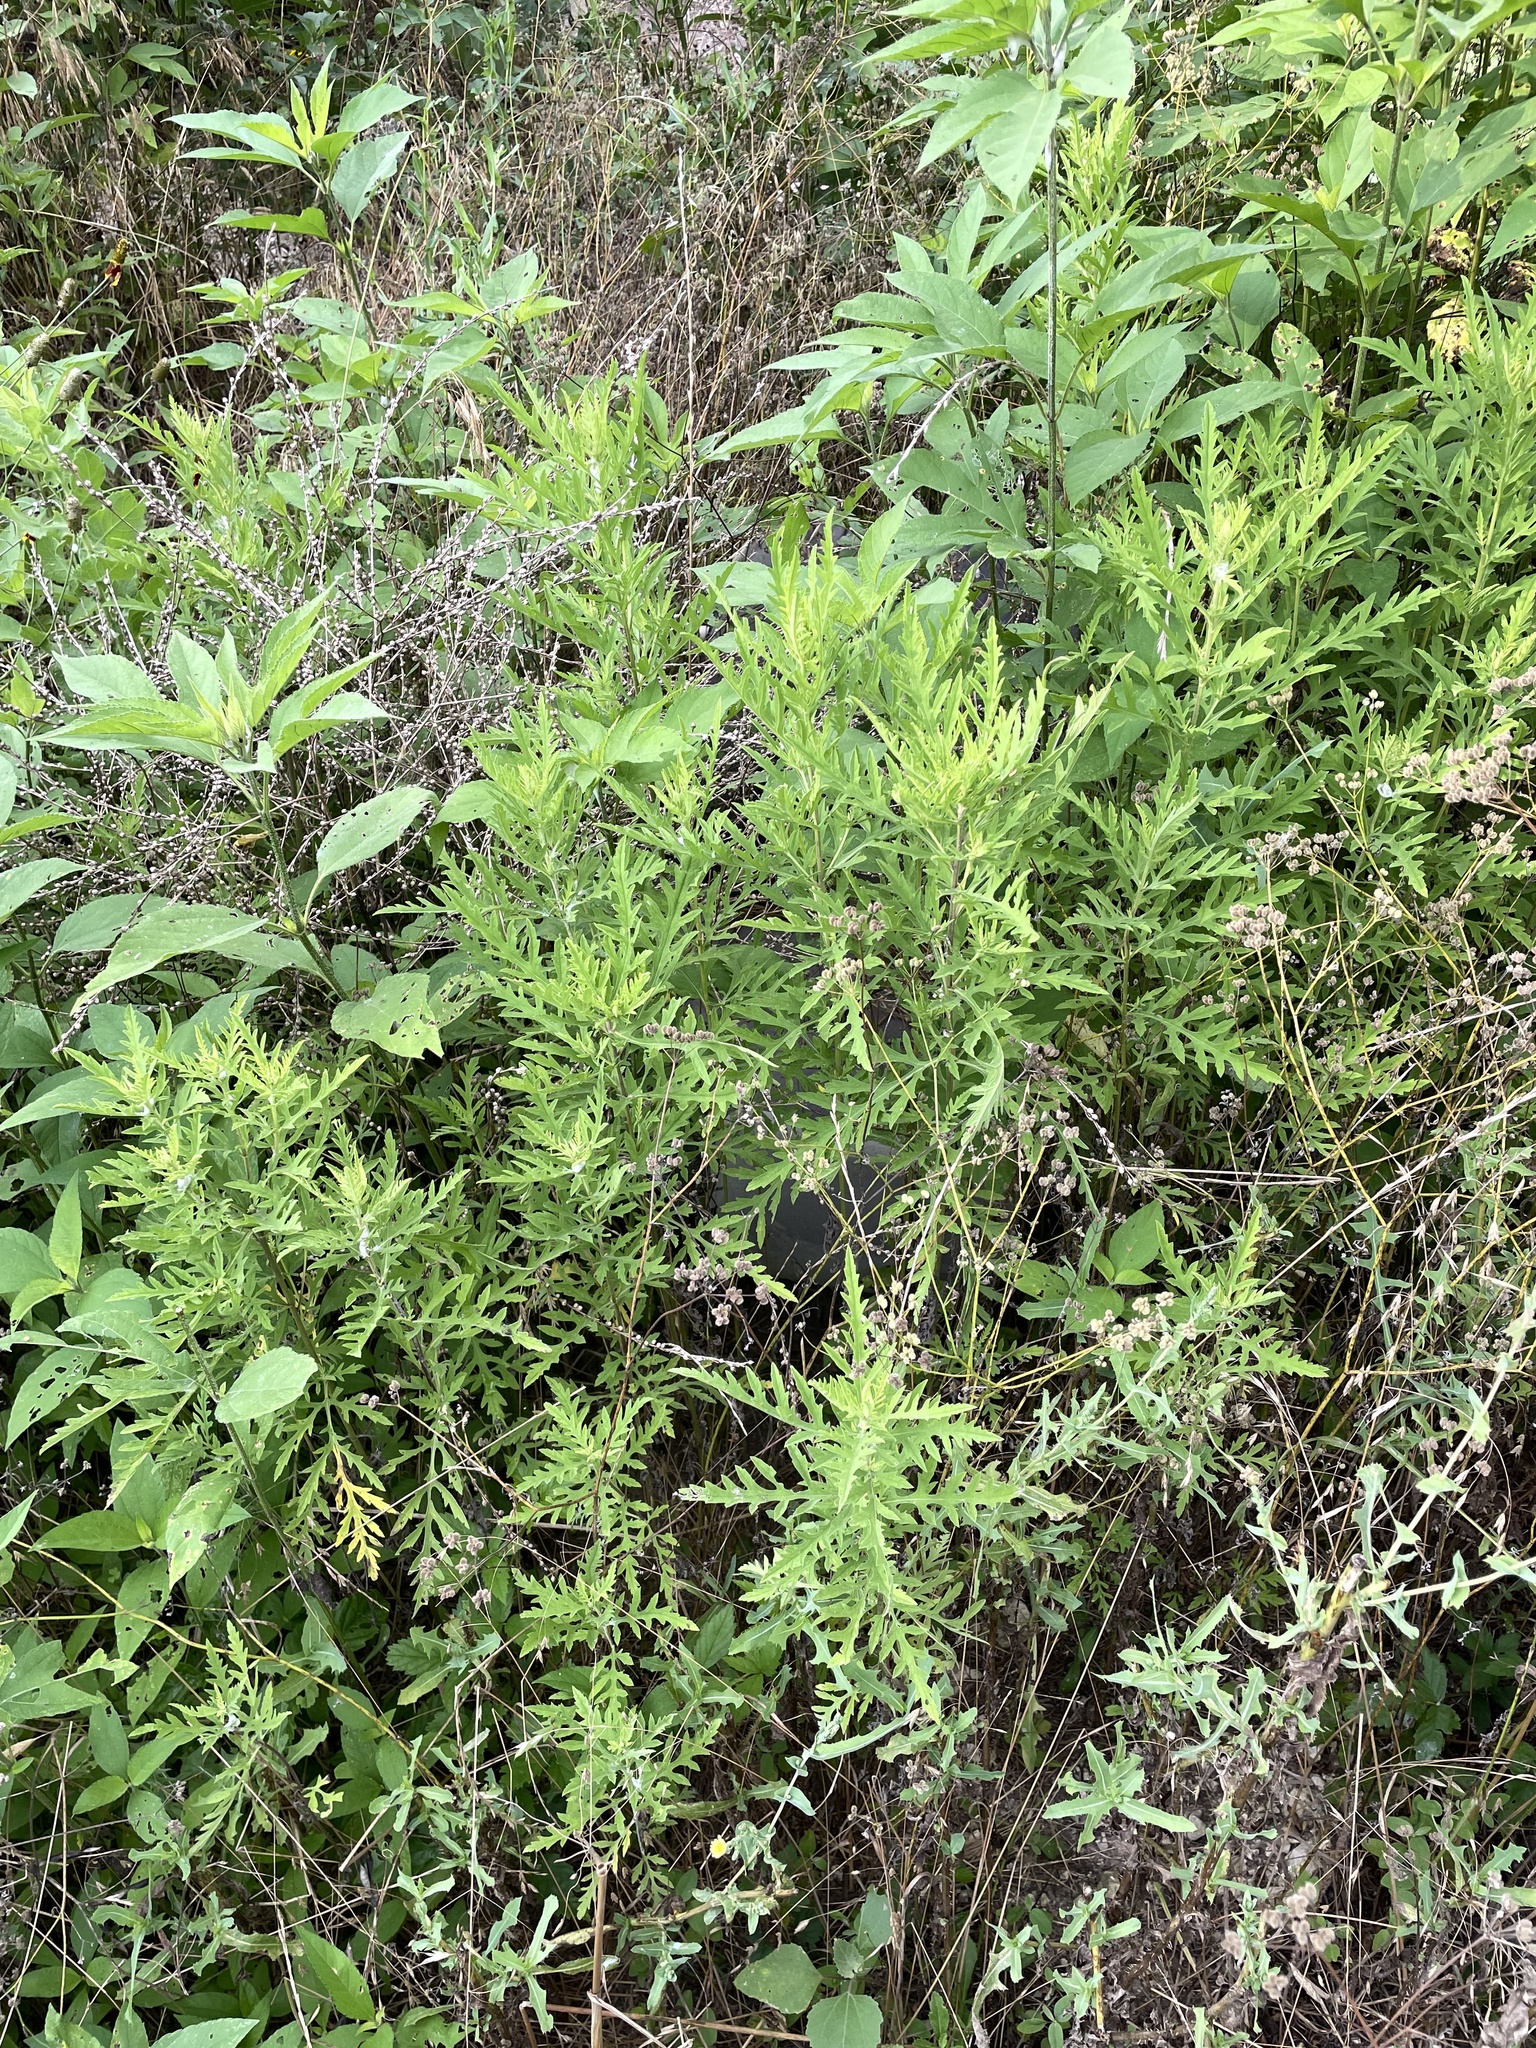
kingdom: Plantae
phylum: Tracheophyta
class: Magnoliopsida
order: Asterales
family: Asteraceae
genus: Ambrosia
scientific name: Ambrosia psilostachya
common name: Perennial ragweed
